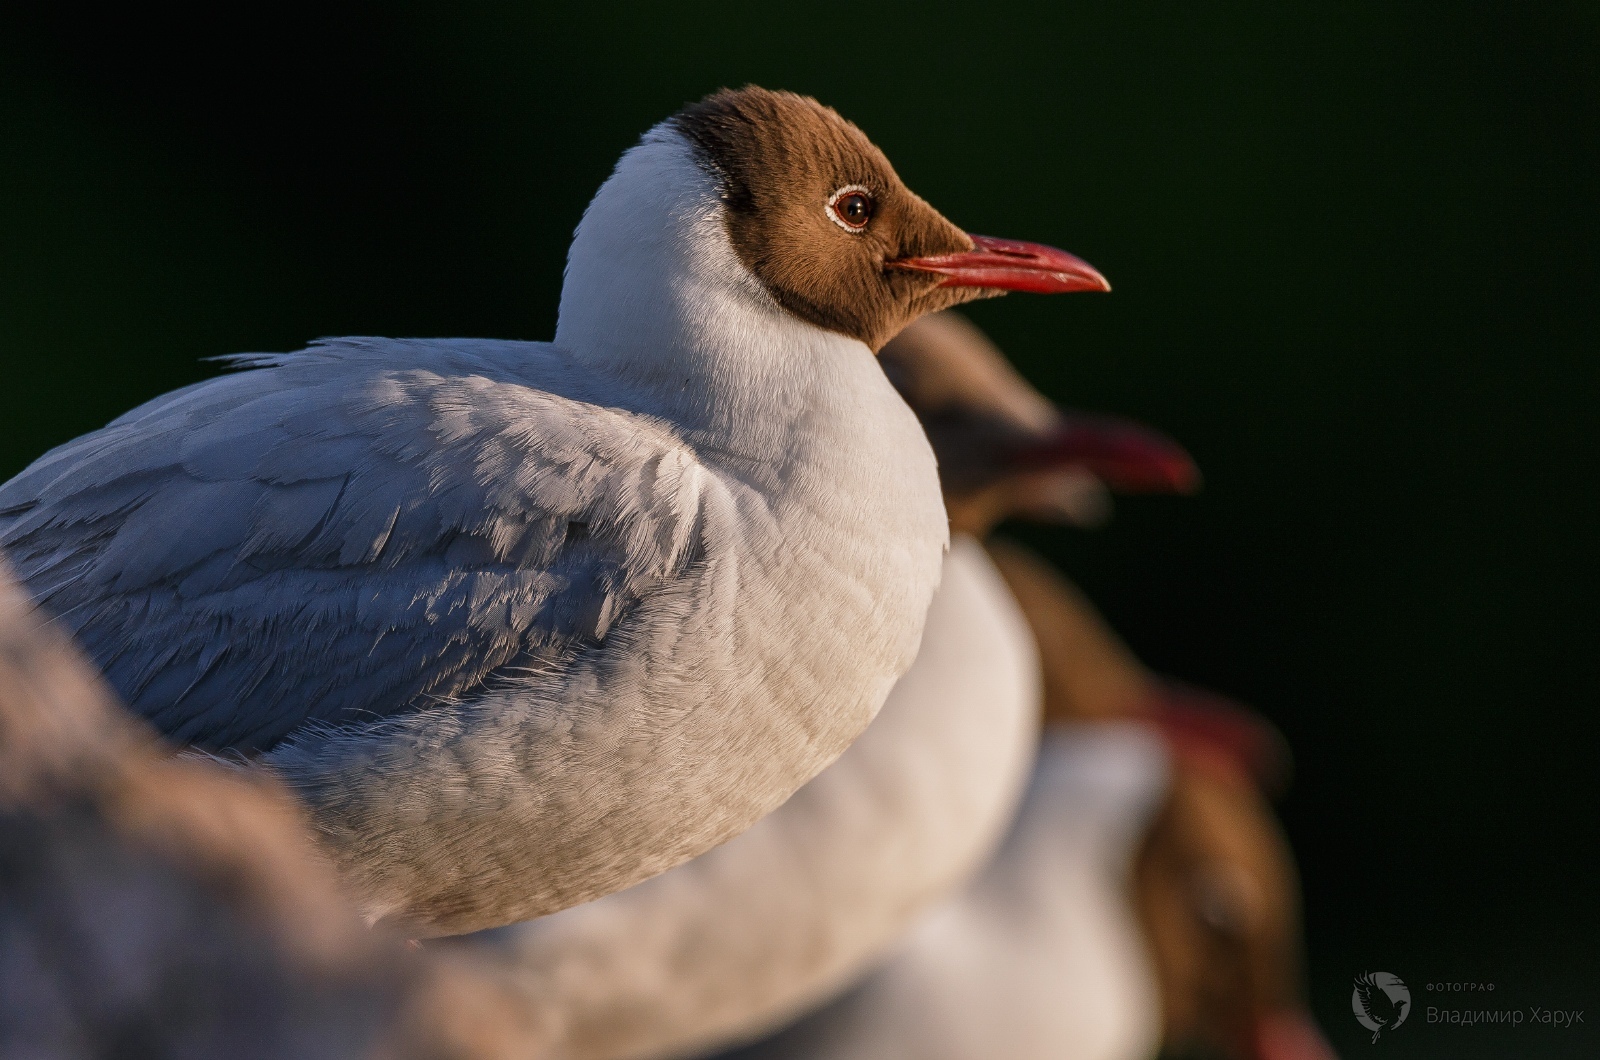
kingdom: Animalia
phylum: Chordata
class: Aves
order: Charadriiformes
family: Laridae
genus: Chroicocephalus
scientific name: Chroicocephalus ridibundus
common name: Black-headed gull
